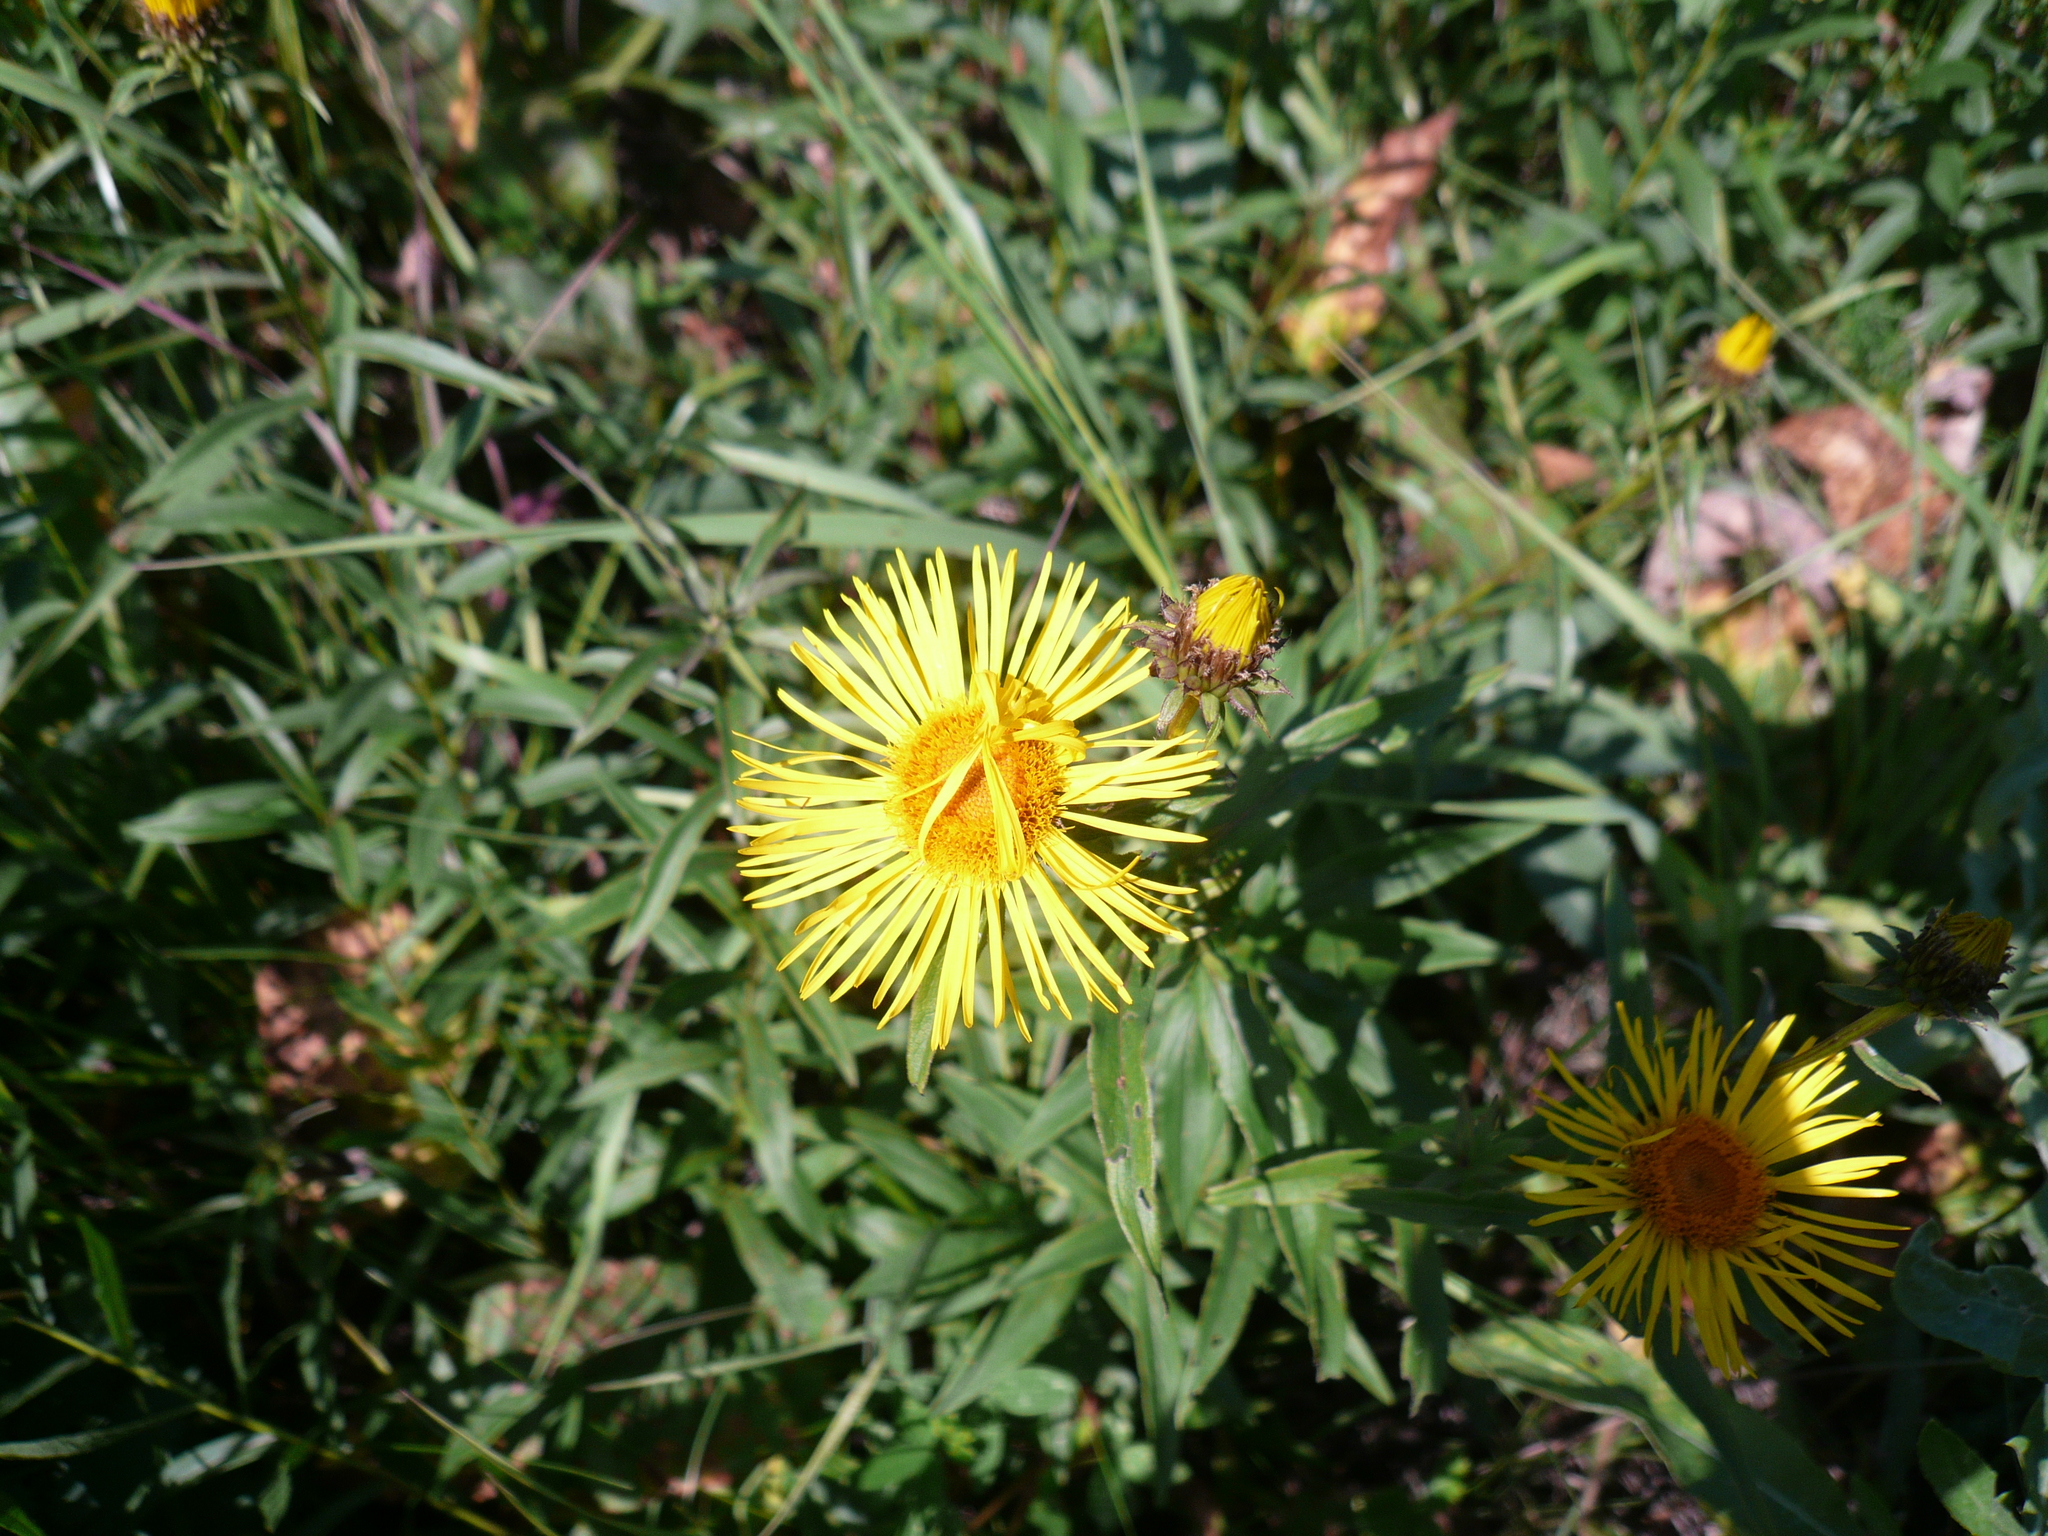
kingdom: Plantae
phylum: Tracheophyta
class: Magnoliopsida
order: Asterales
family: Asteraceae
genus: Pentanema
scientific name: Pentanema salicinum
